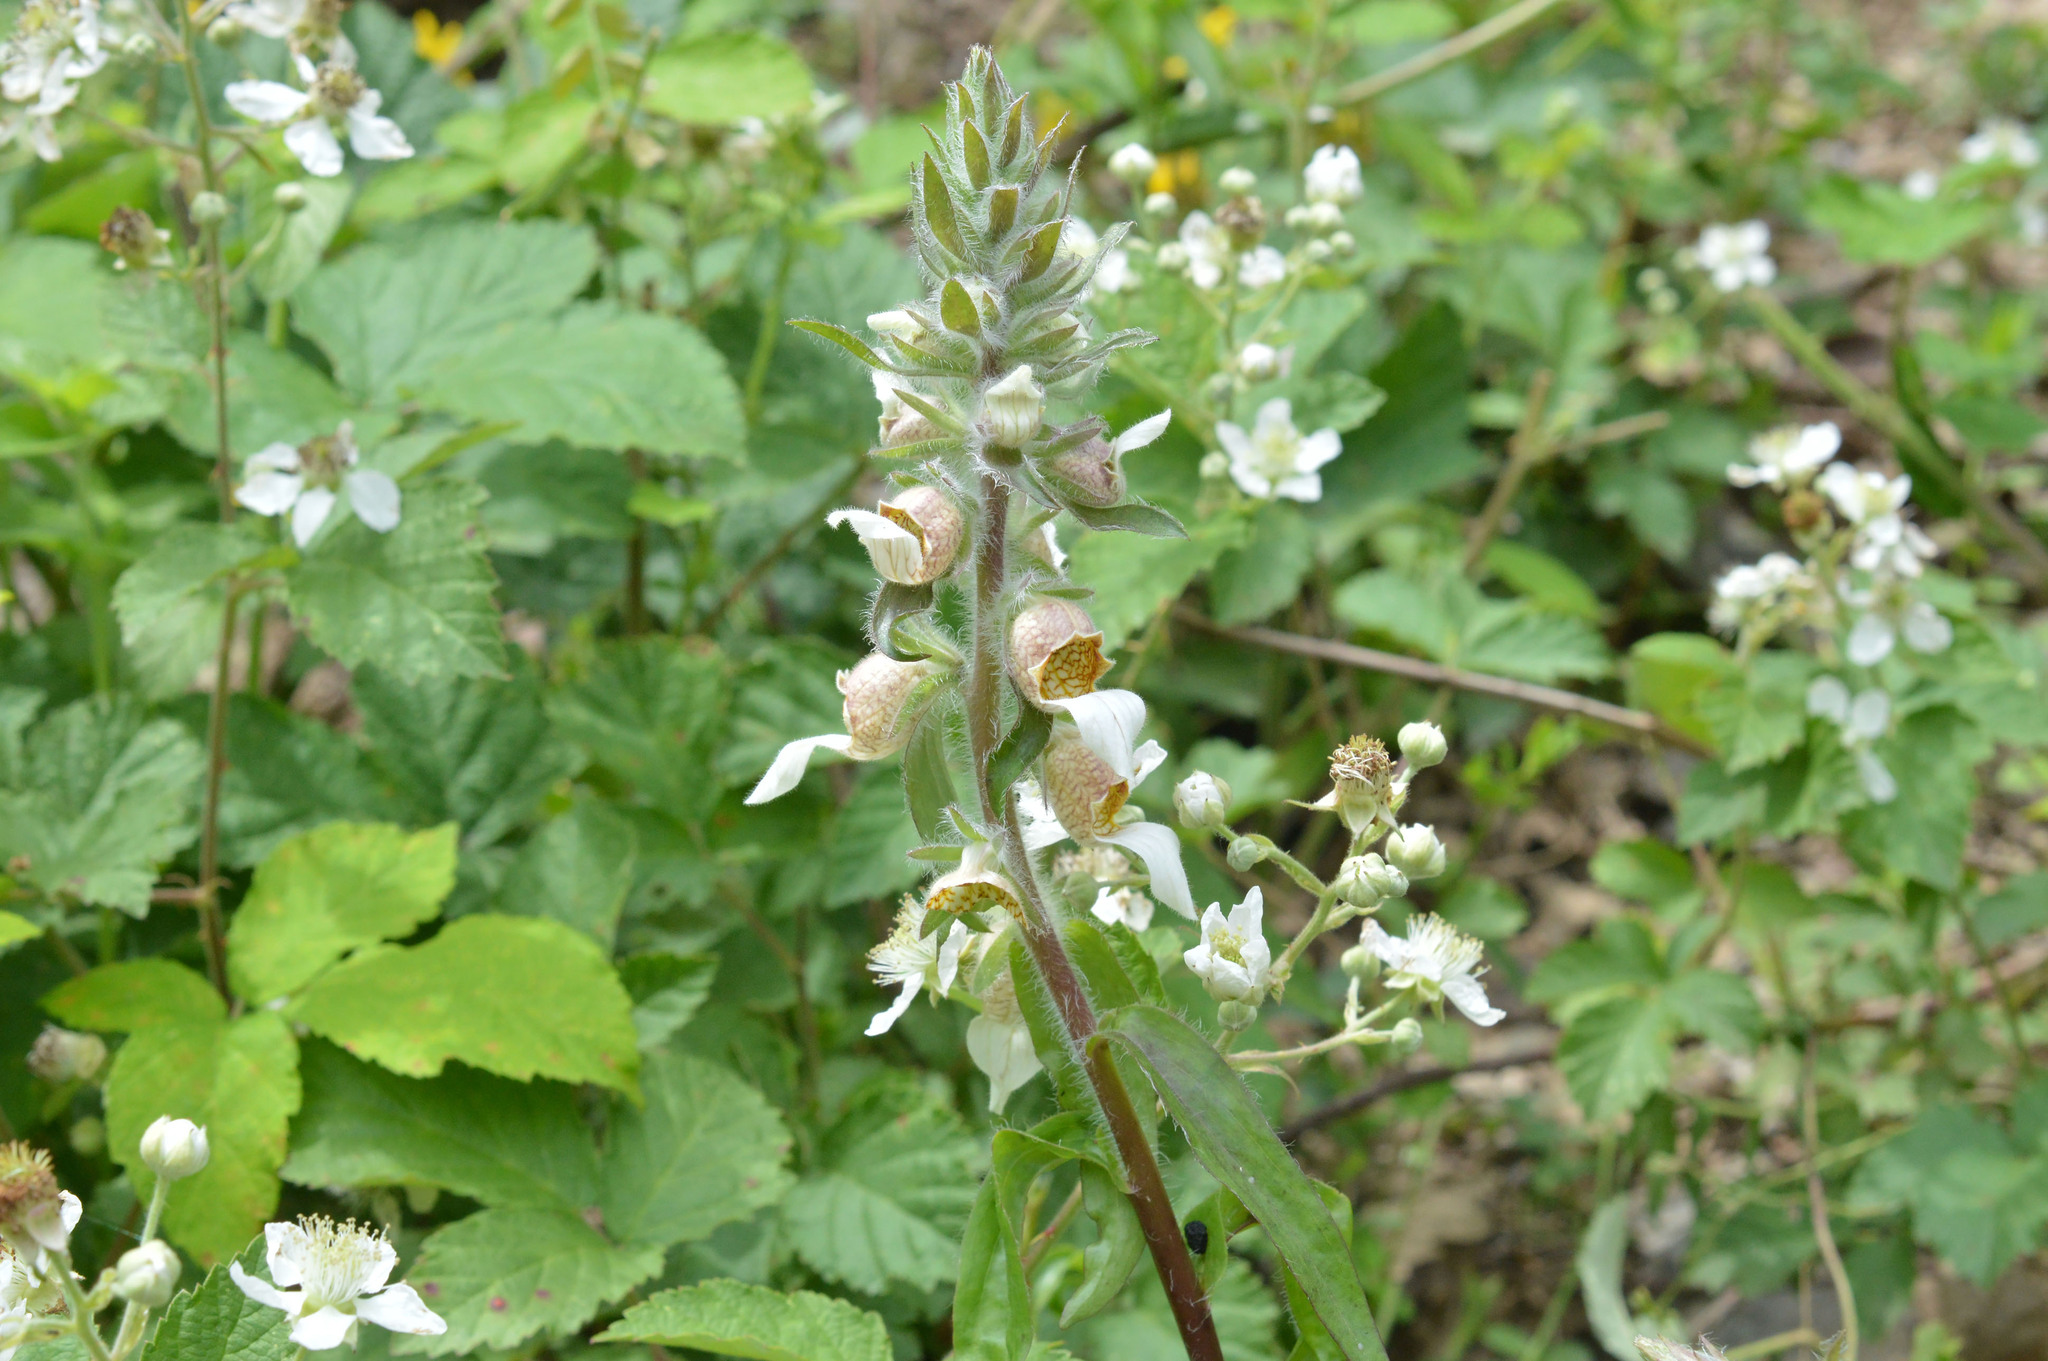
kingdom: Plantae
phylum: Tracheophyta
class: Magnoliopsida
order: Lamiales
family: Plantaginaceae
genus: Digitalis
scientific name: Digitalis lanata
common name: Grecian foxglove
